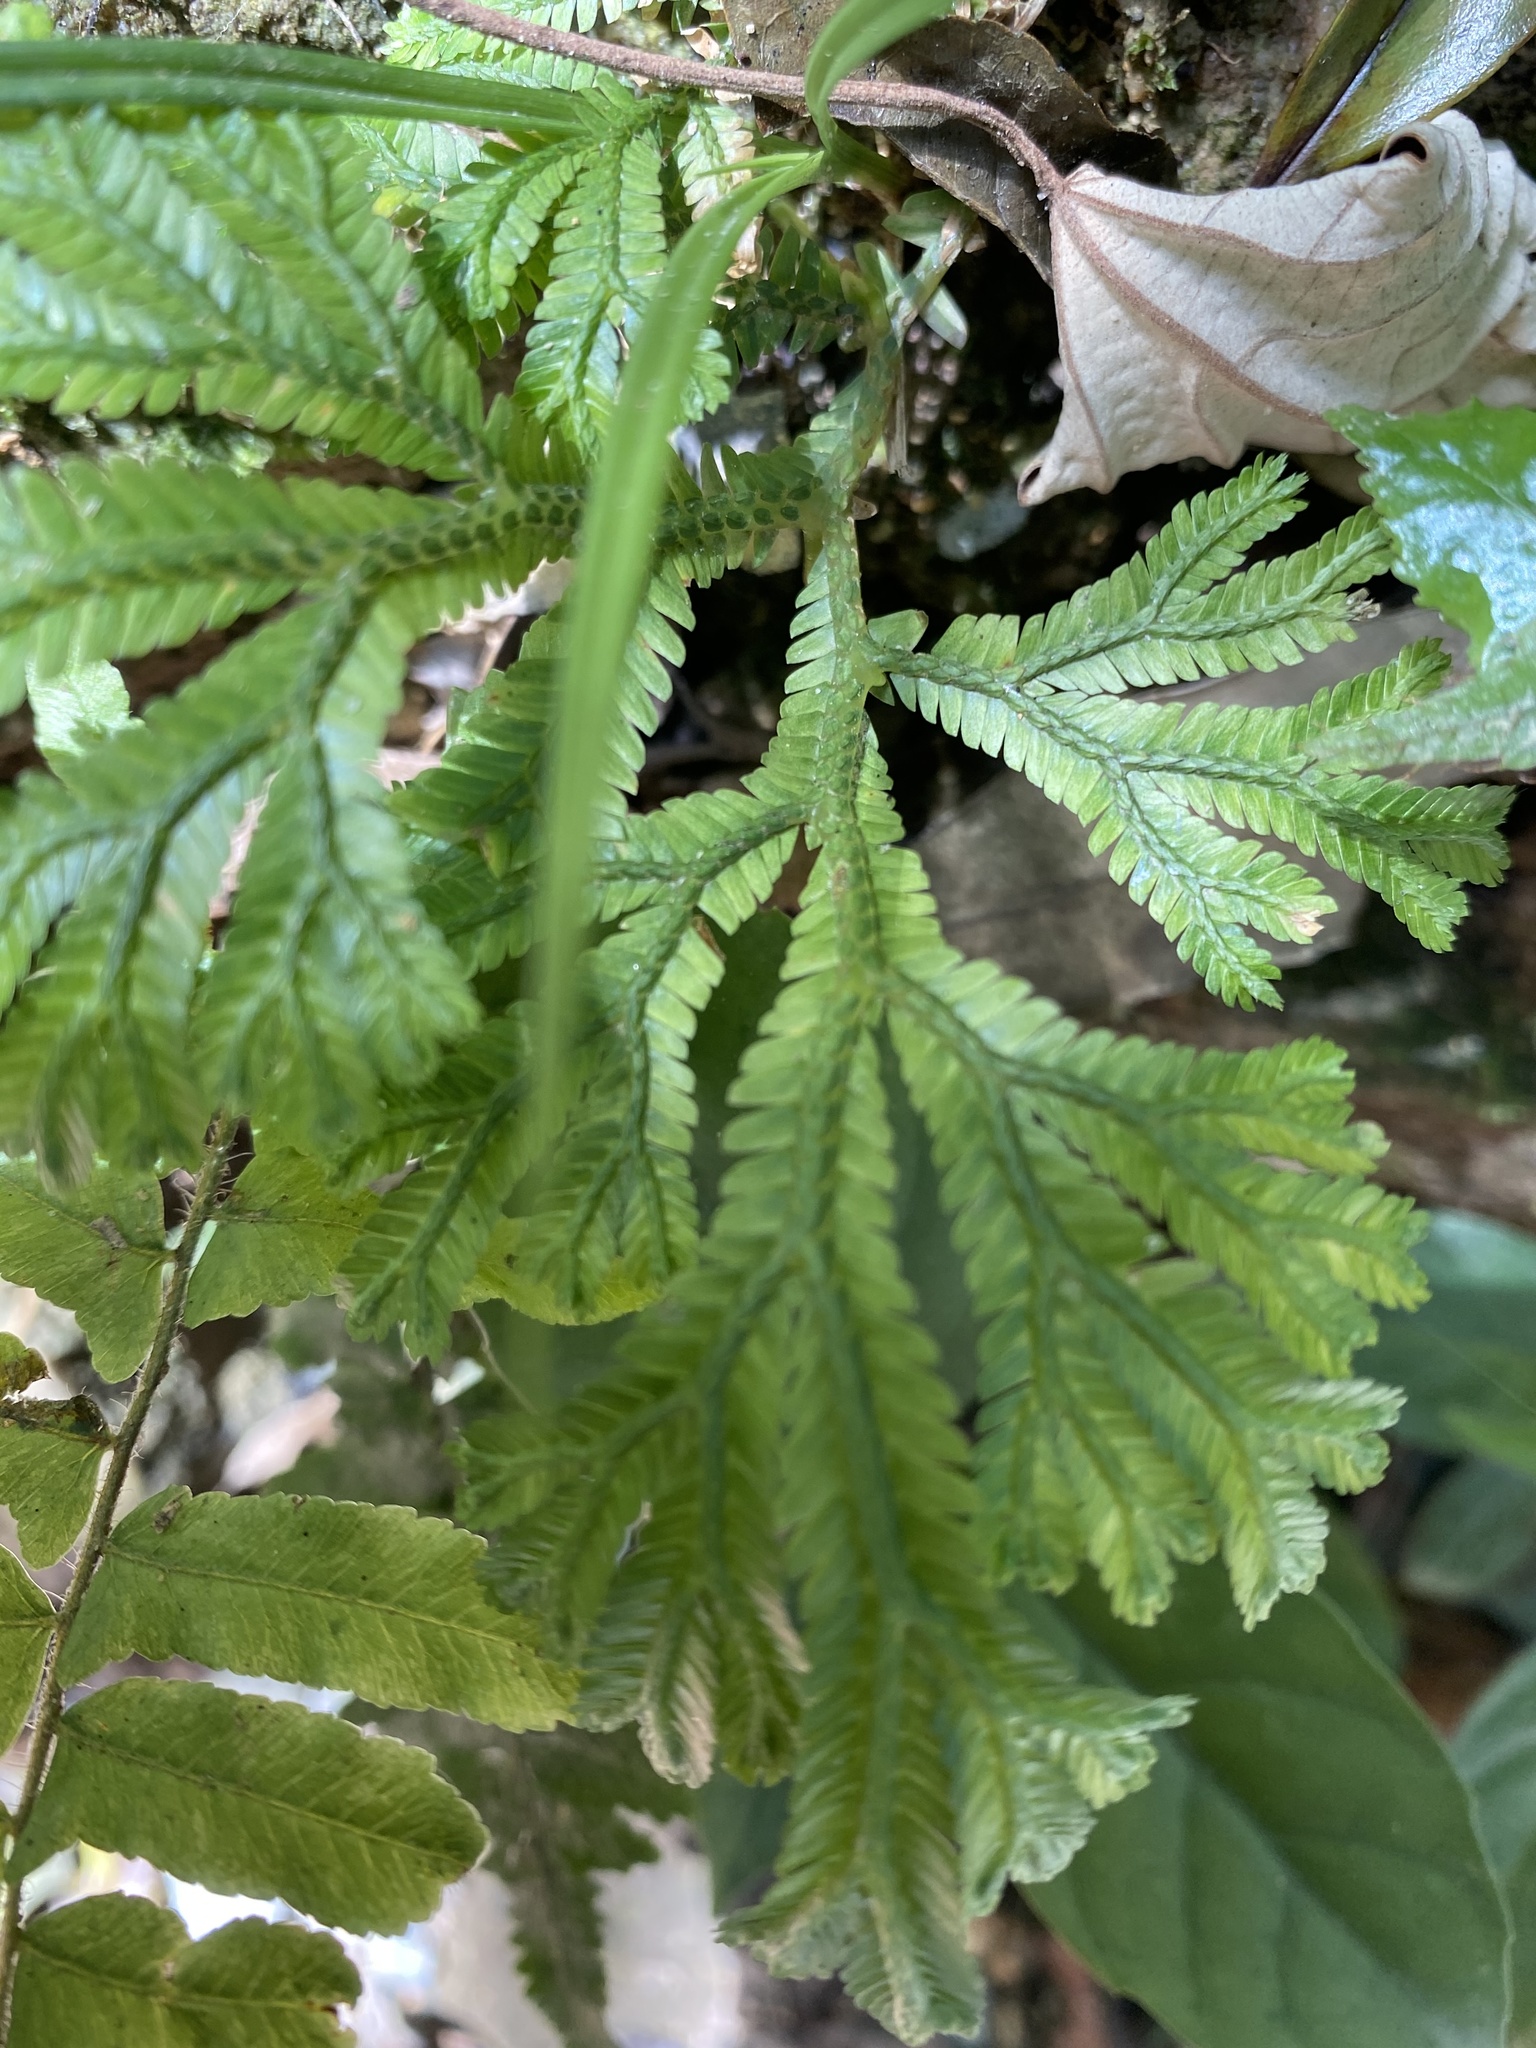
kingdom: Plantae
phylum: Tracheophyta
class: Lycopodiopsida
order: Selaginellales
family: Selaginellaceae
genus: Selaginella
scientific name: Selaginella doederleinii
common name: Greater selaginella
